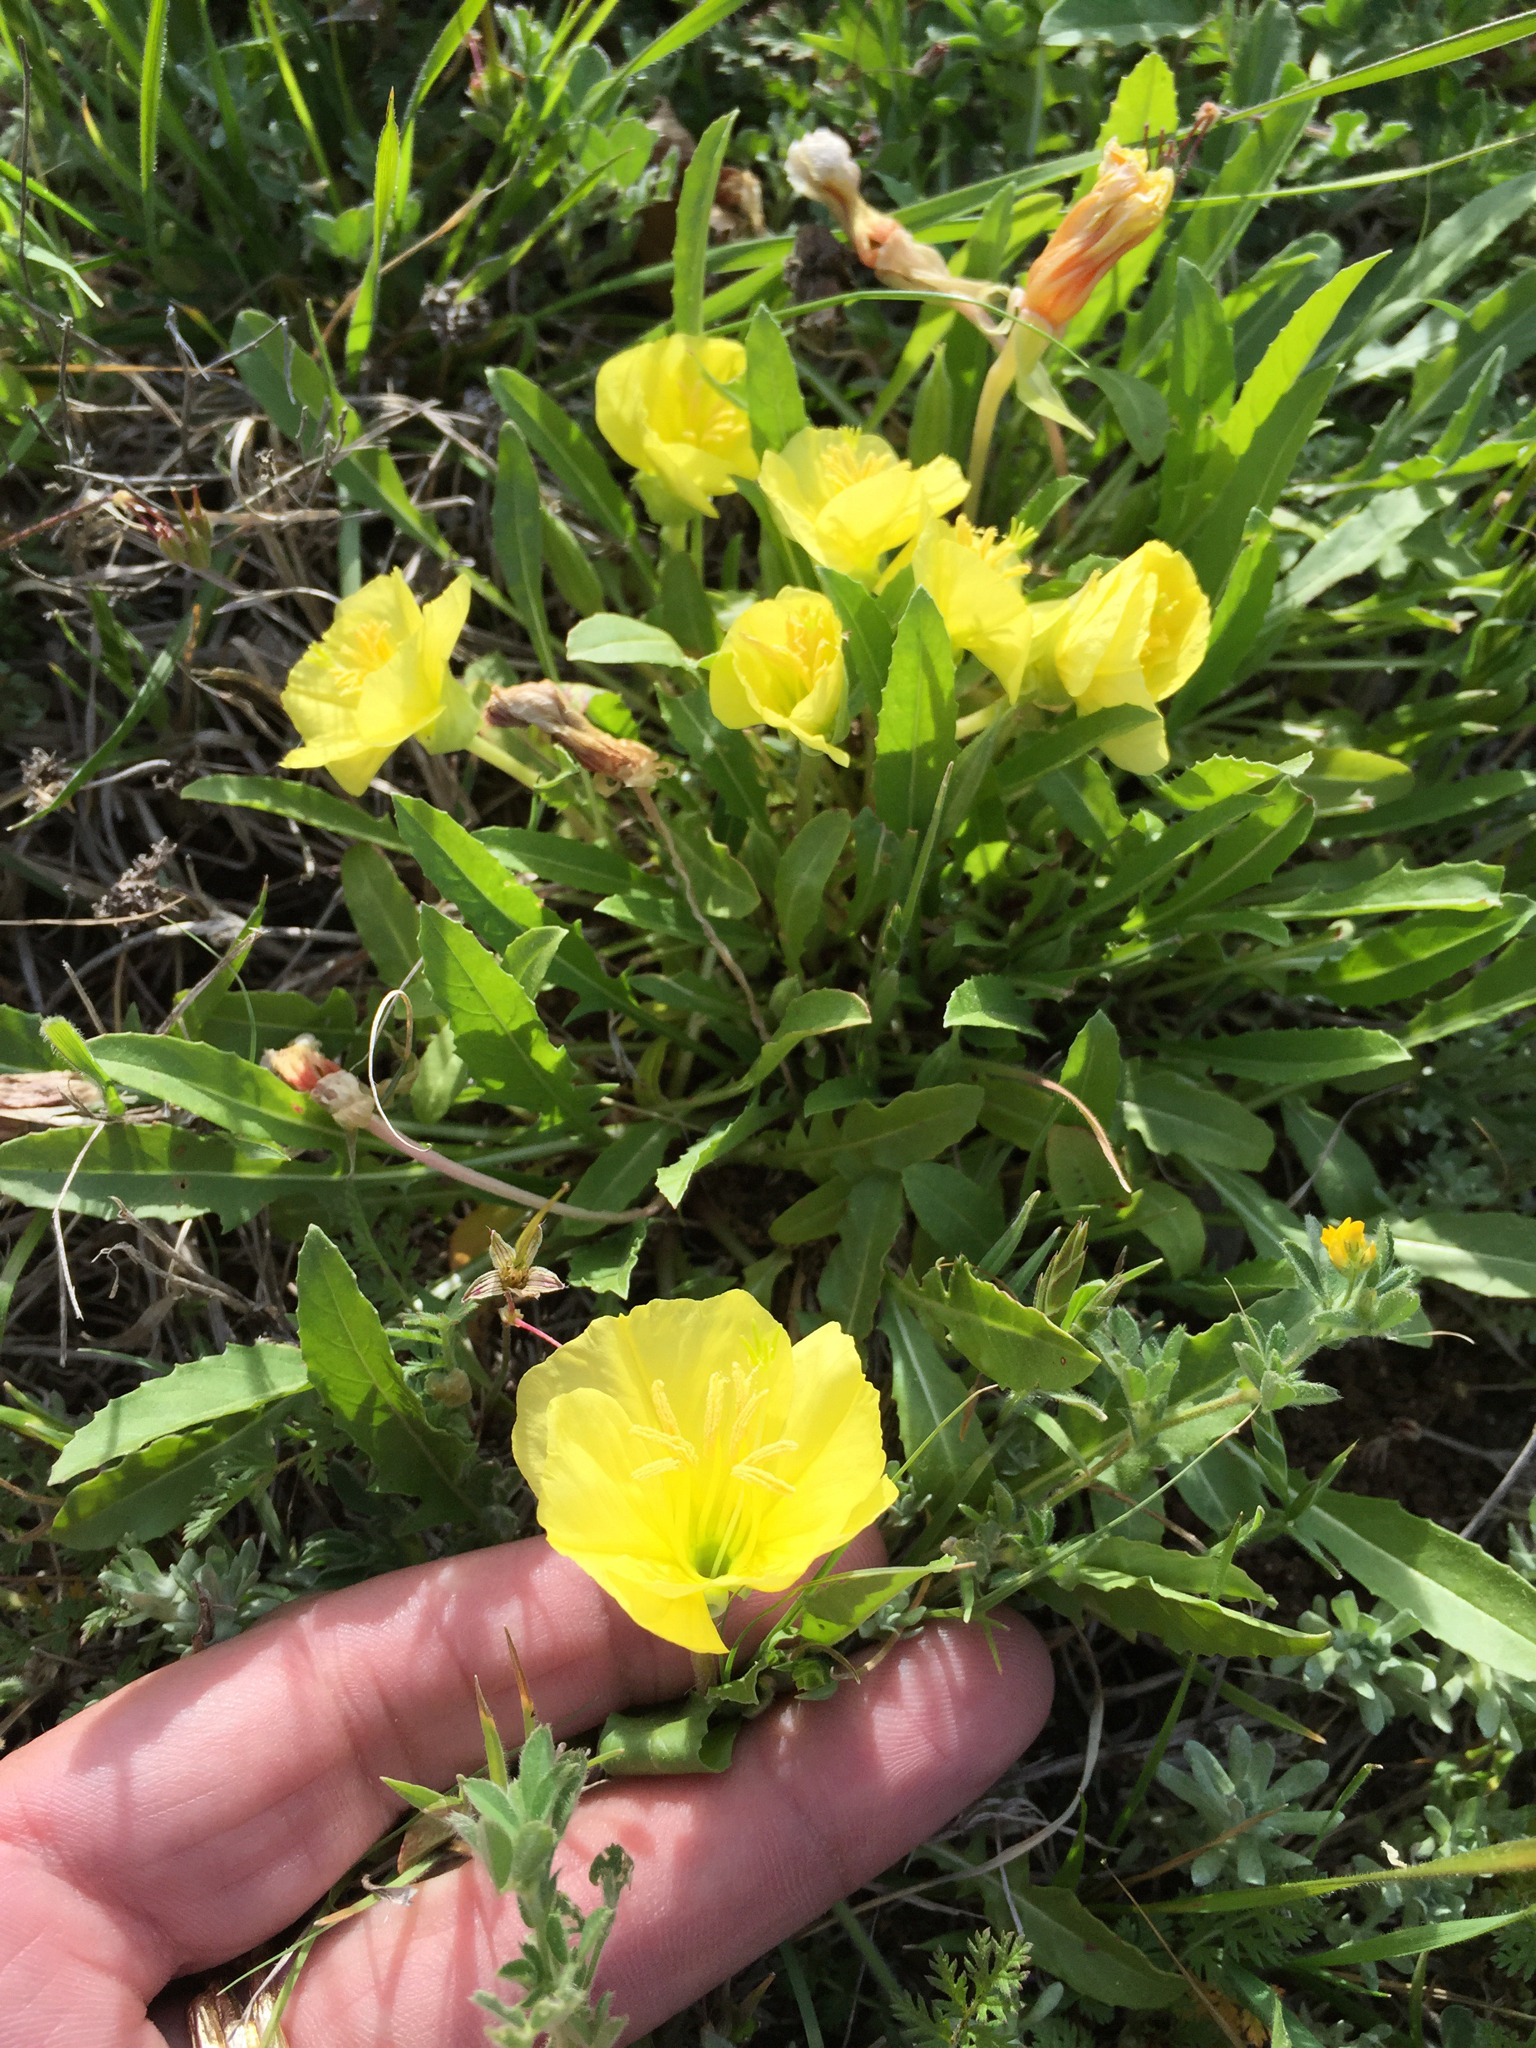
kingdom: Plantae
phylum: Tracheophyta
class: Magnoliopsida
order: Myrtales
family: Onagraceae
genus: Oenothera
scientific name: Oenothera triloba
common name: Sessile evening-primrose
